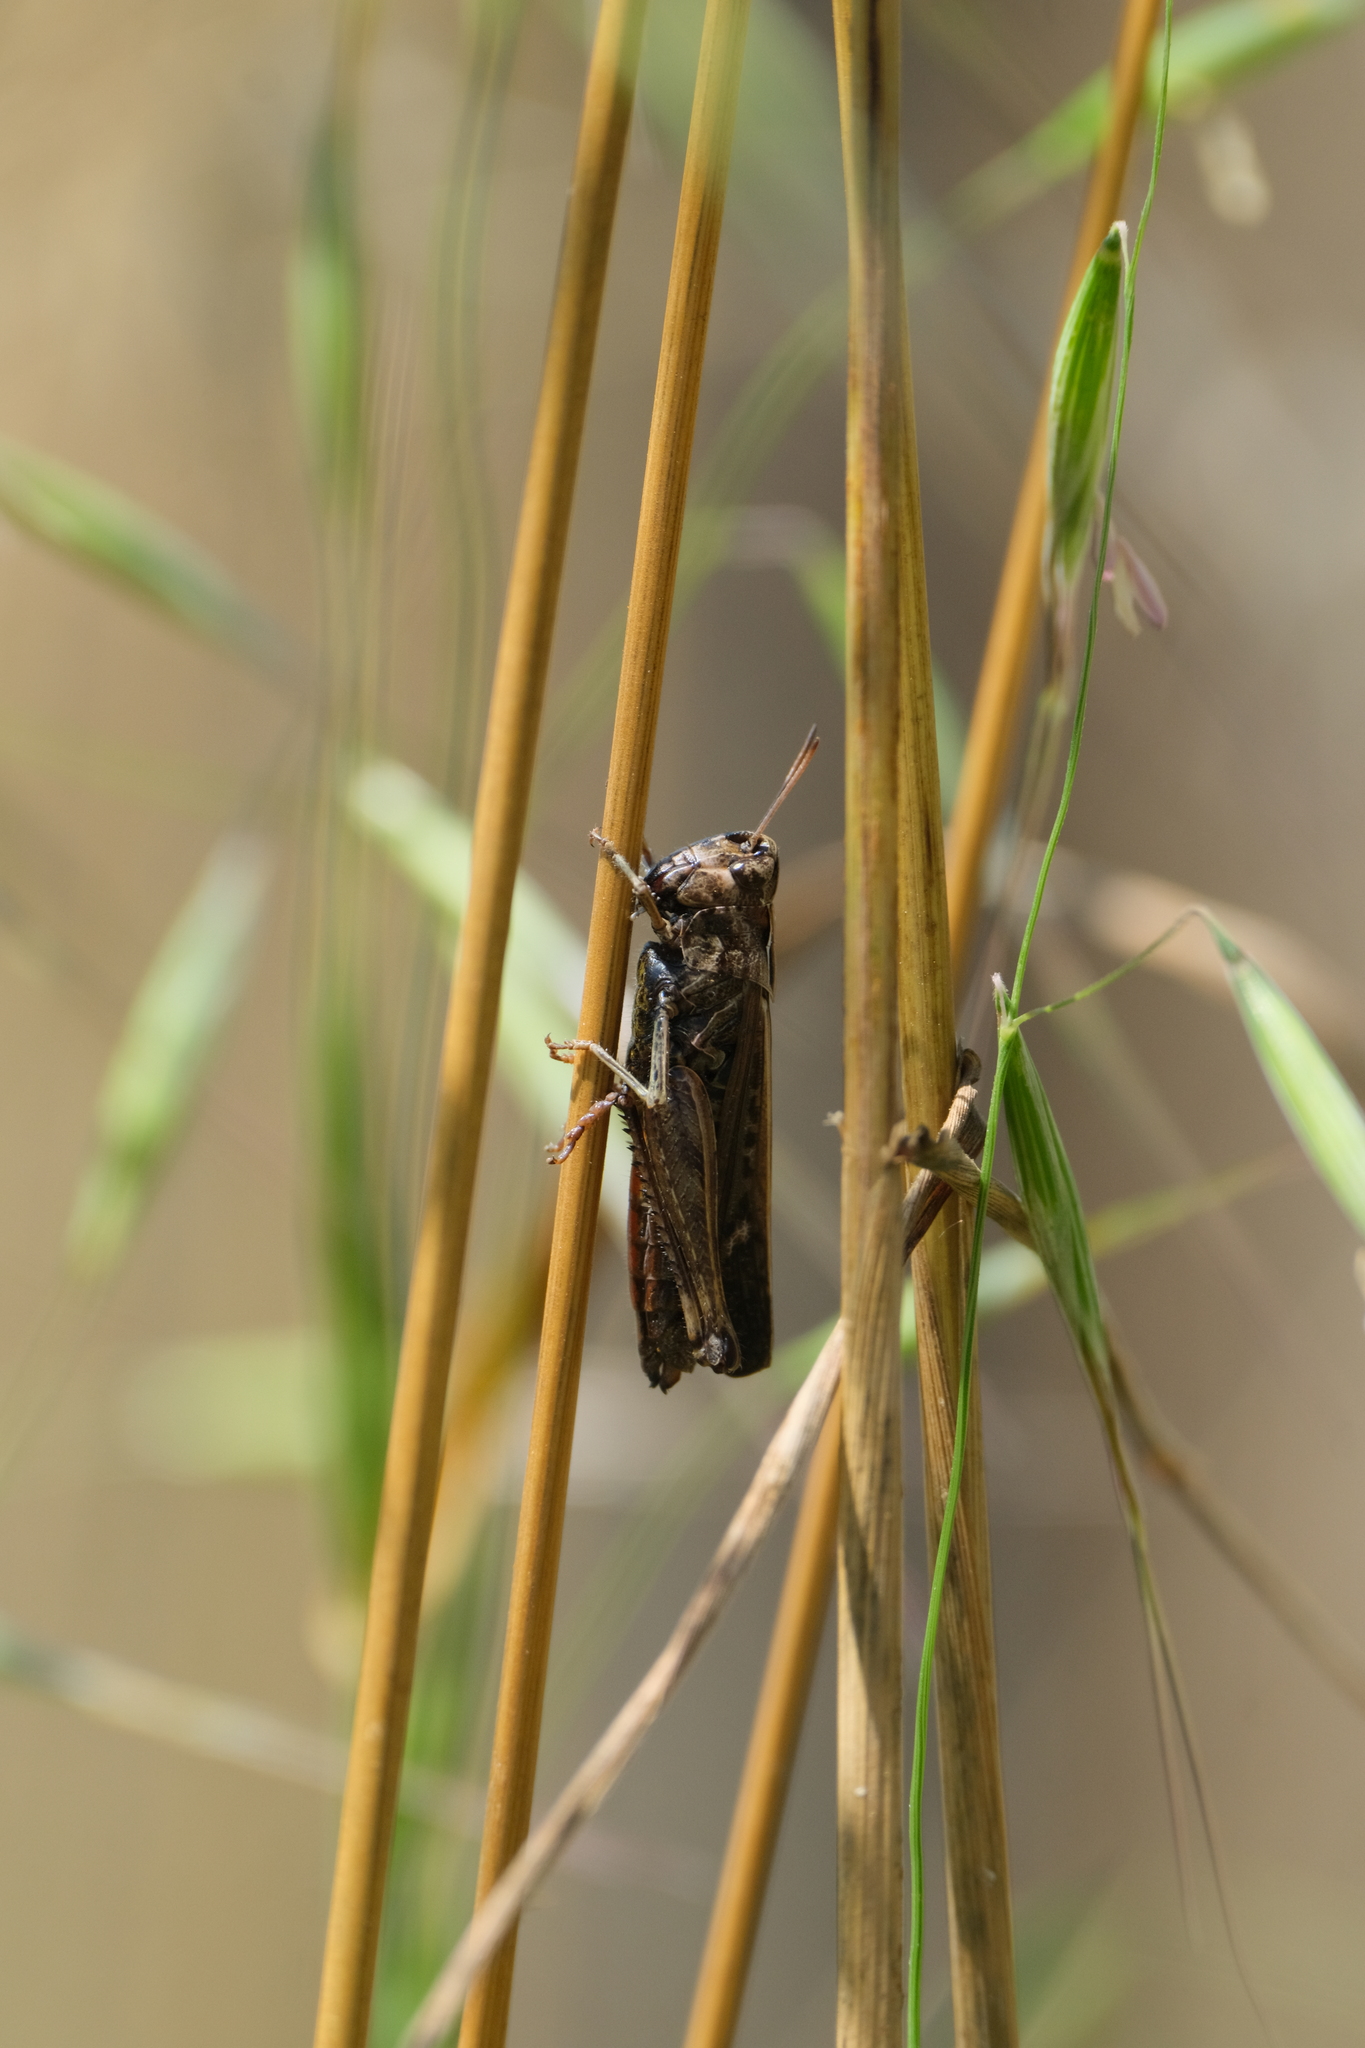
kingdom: Animalia
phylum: Arthropoda
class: Insecta
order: Orthoptera
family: Acrididae
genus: Omocestus
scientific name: Omocestus rufipes
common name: Woodland grasshopper
